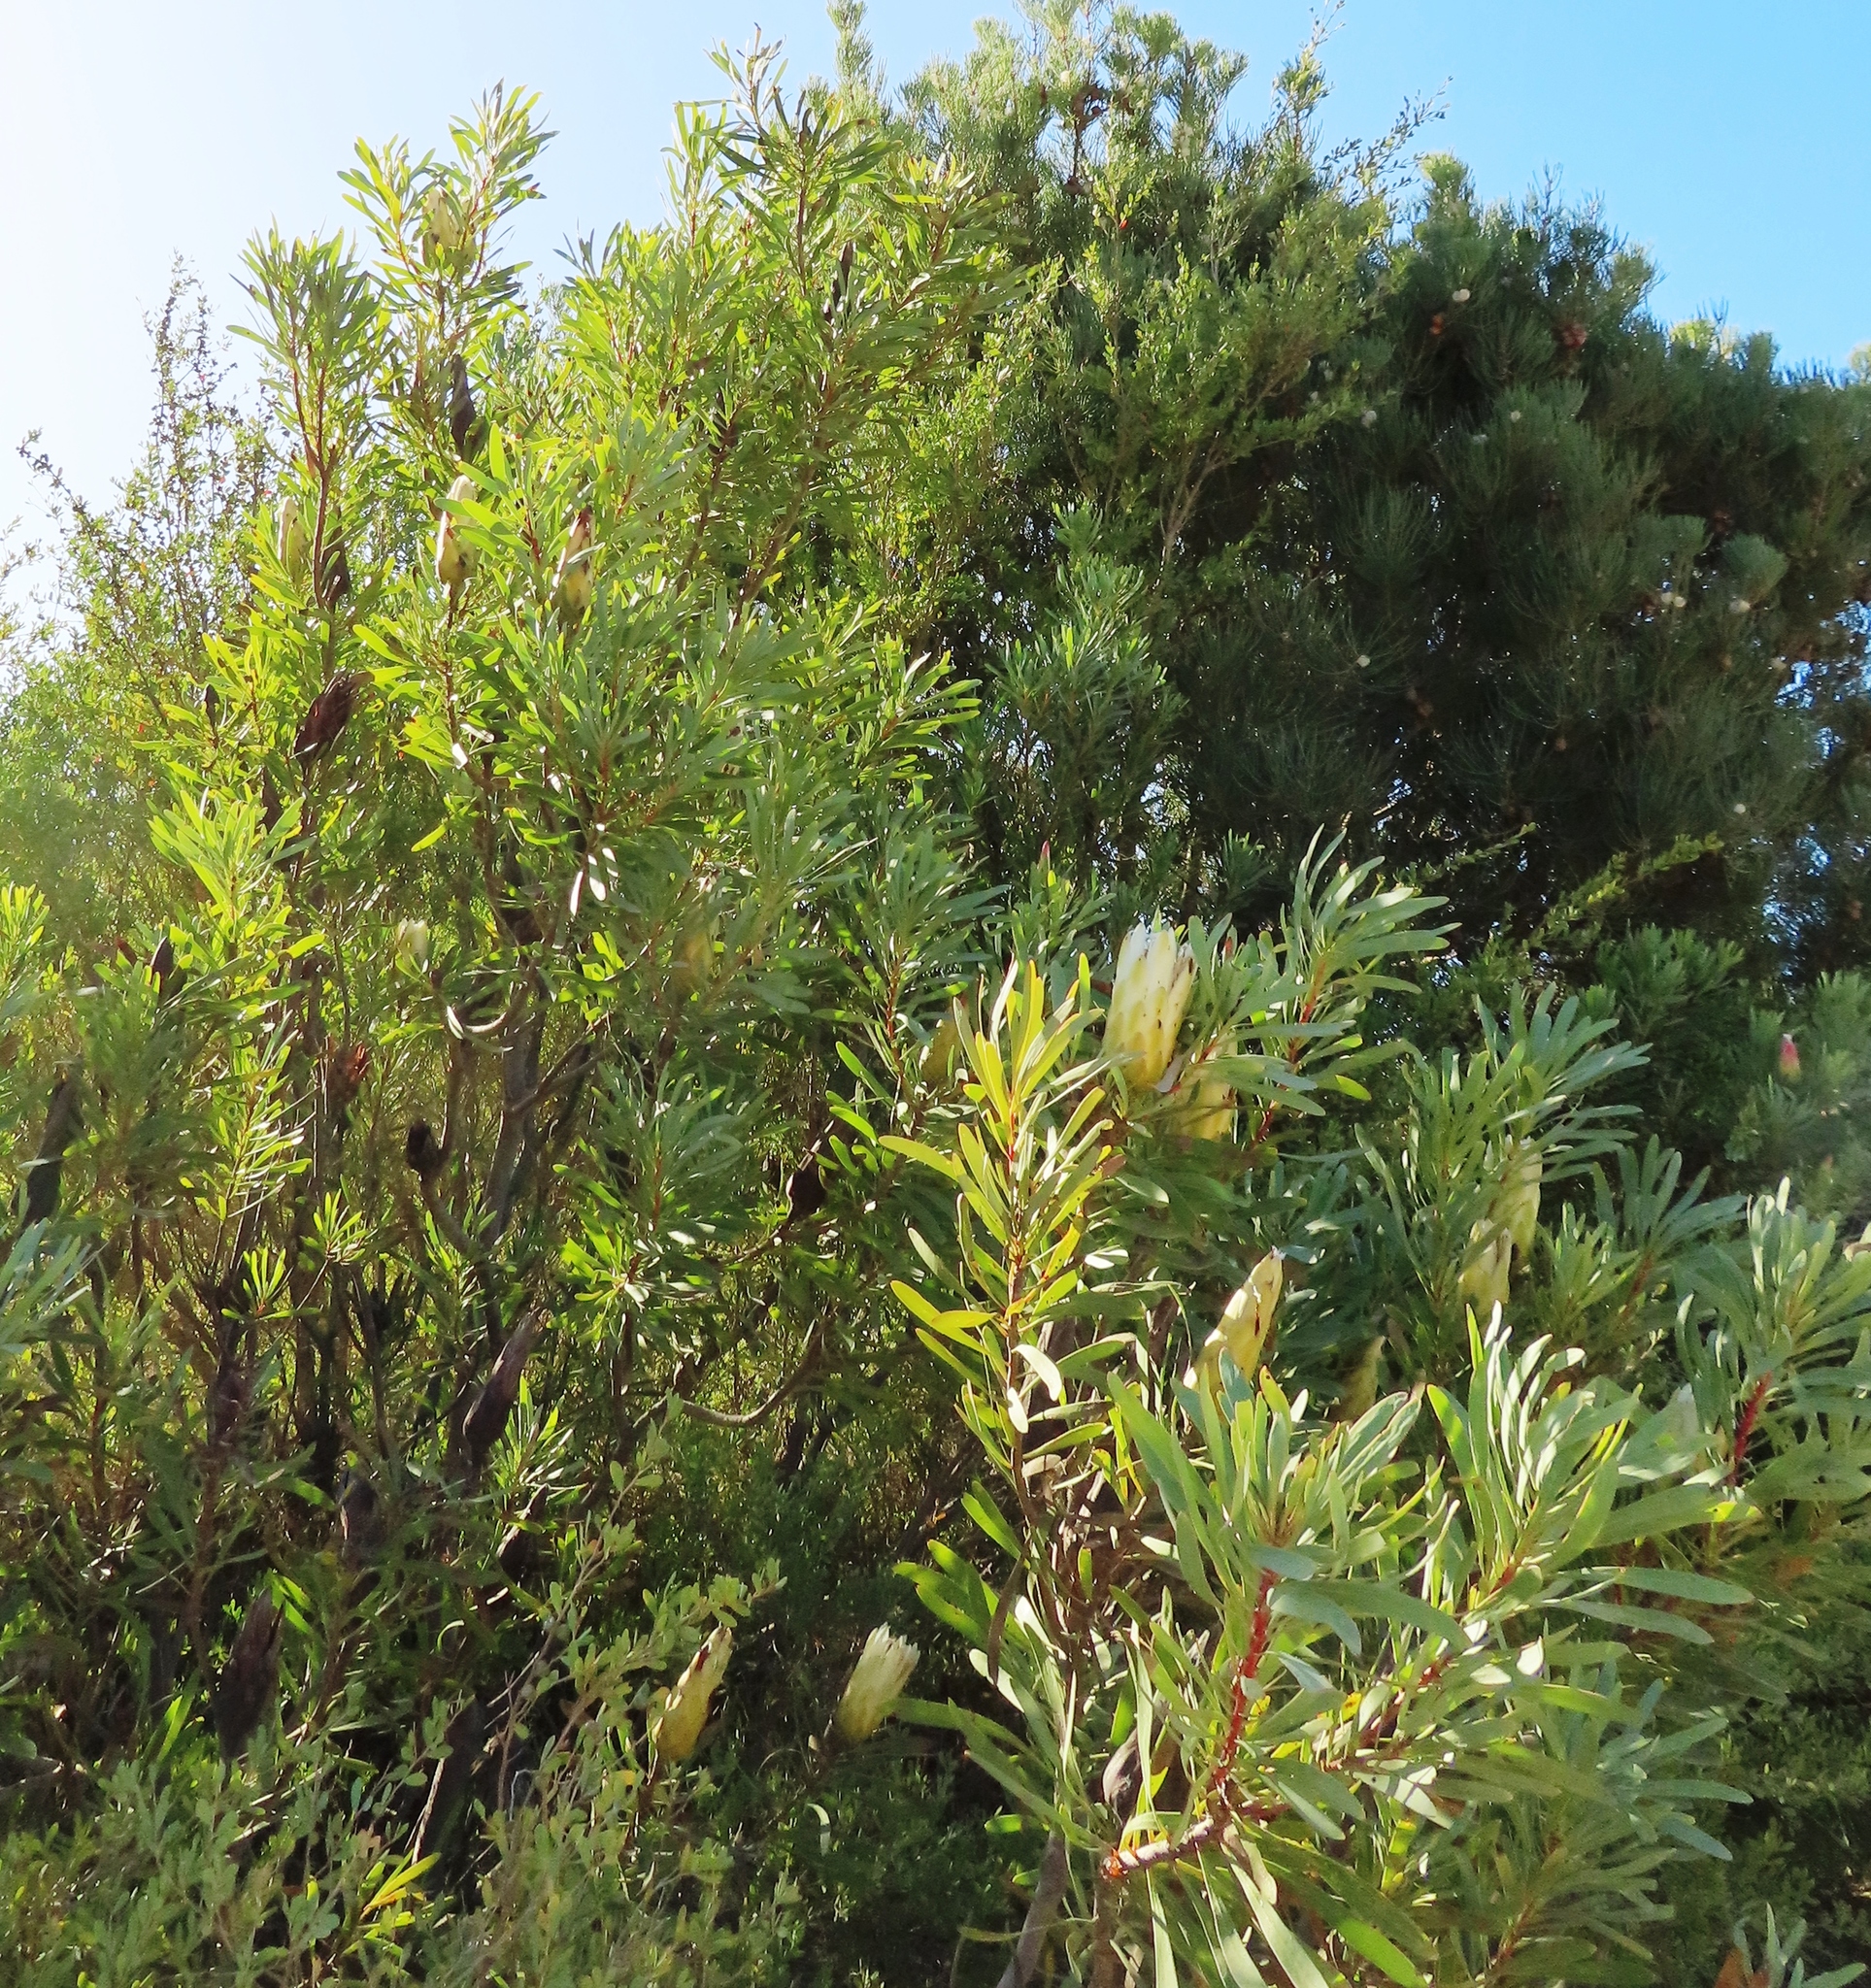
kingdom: Plantae
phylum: Tracheophyta
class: Magnoliopsida
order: Proteales
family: Proteaceae
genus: Protea
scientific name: Protea repens
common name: Sugarbush
